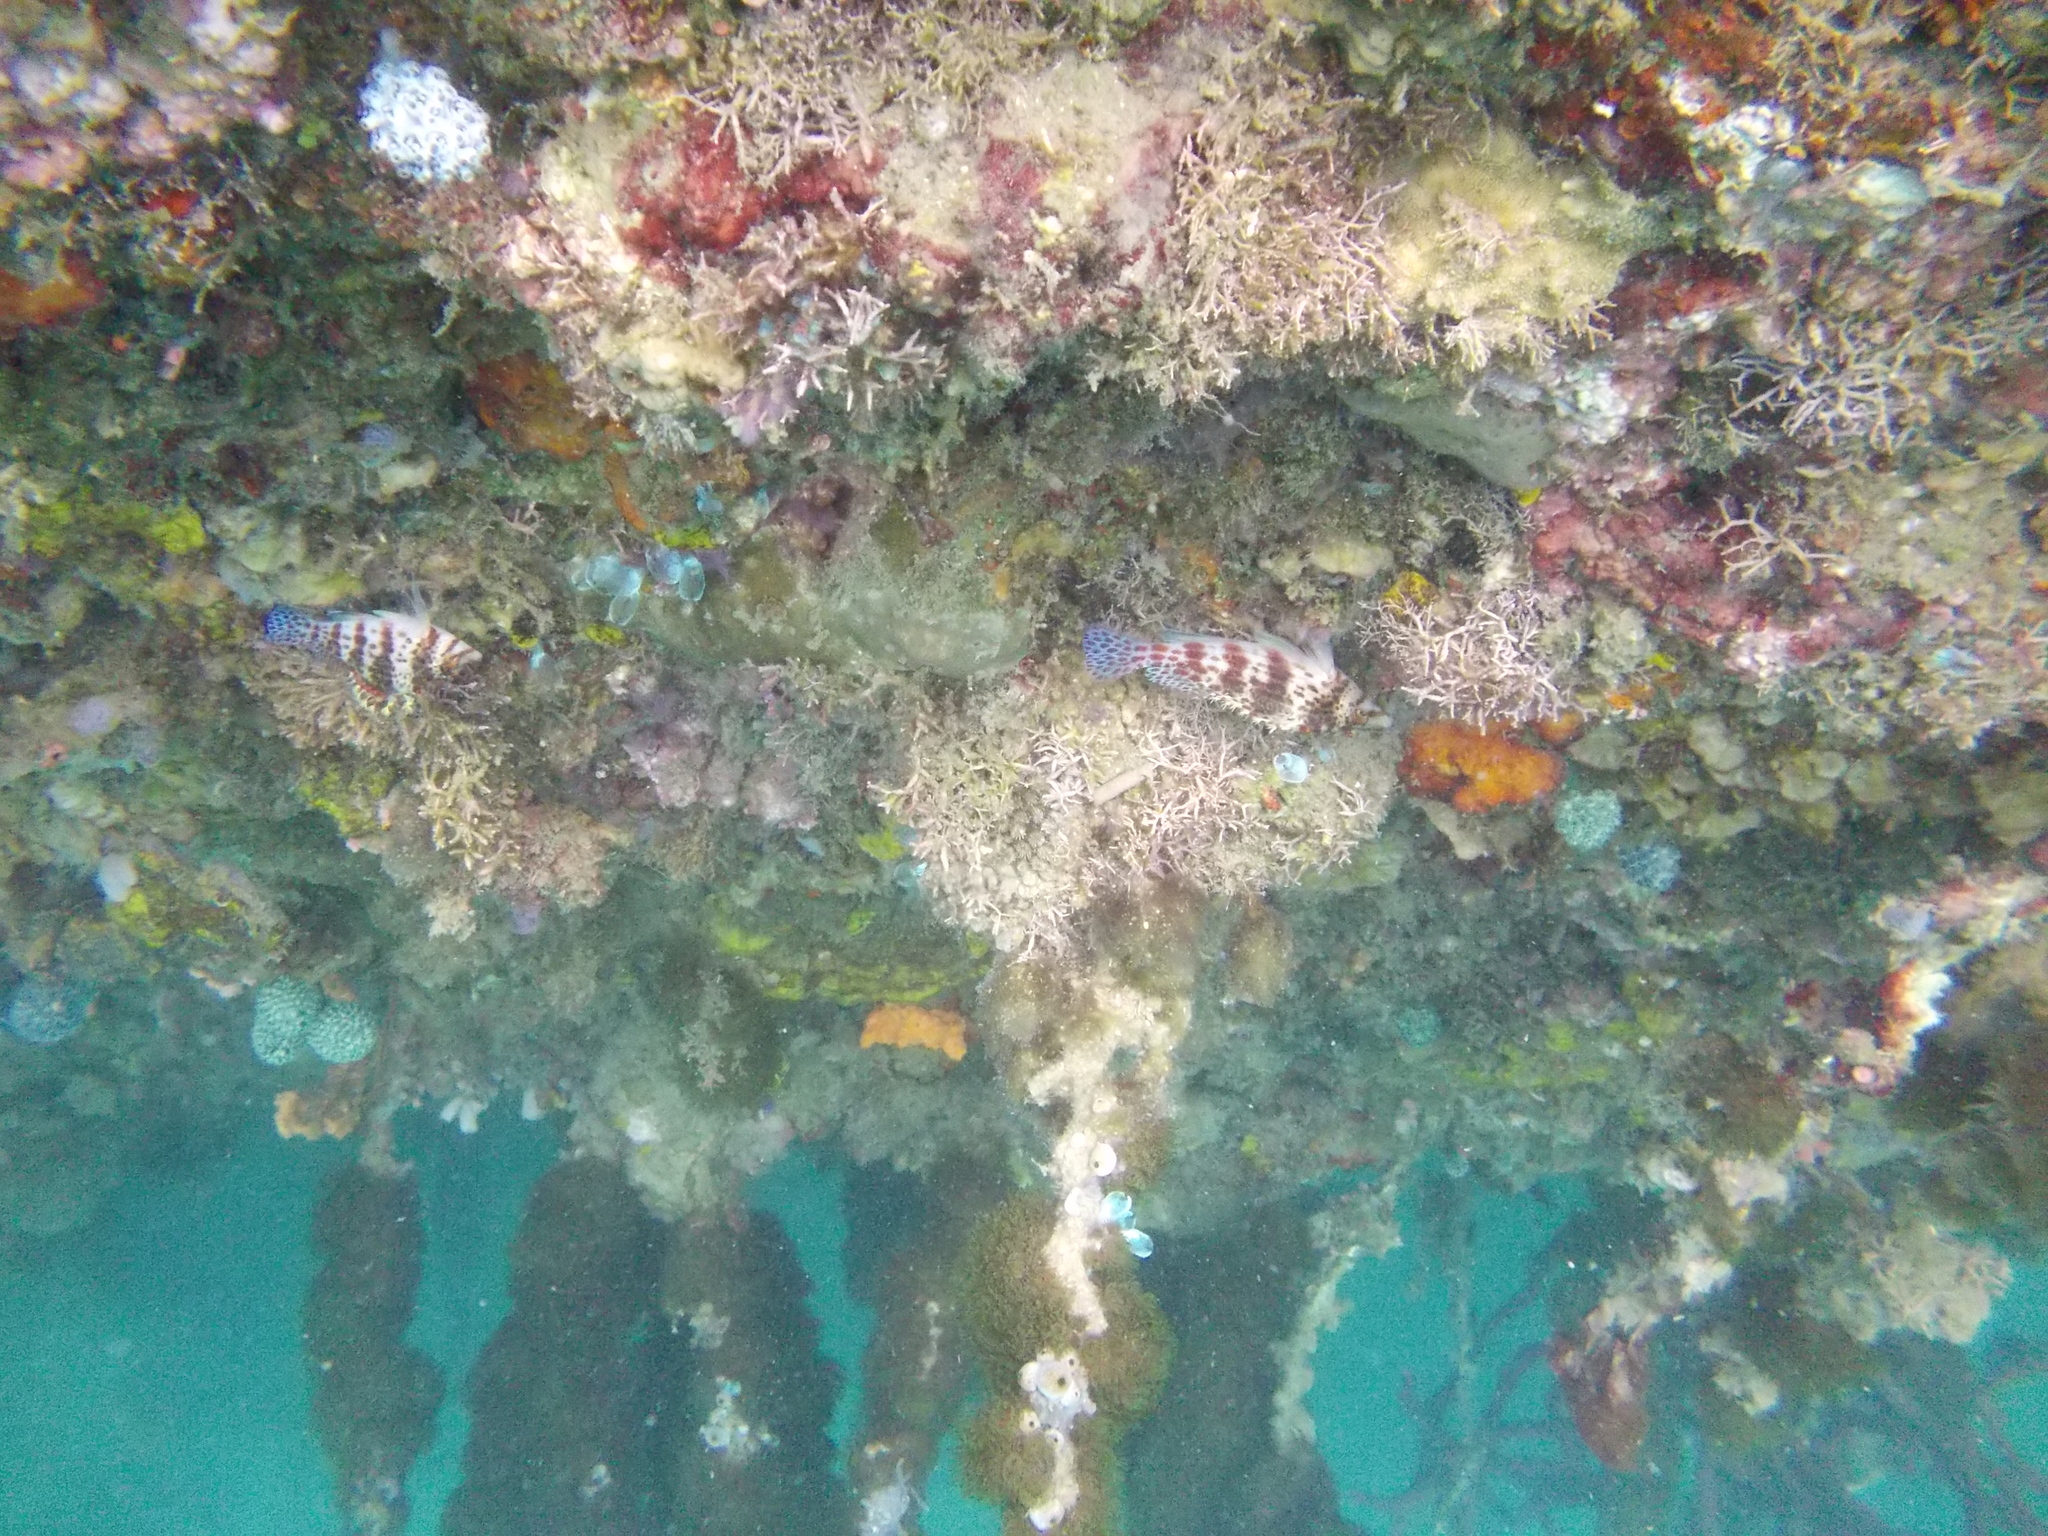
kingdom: Animalia
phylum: Chordata
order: Perciformes
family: Cirrhitidae
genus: Cirrhitichthys
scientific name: Cirrhitichthys falco
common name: Coral hawkfish
